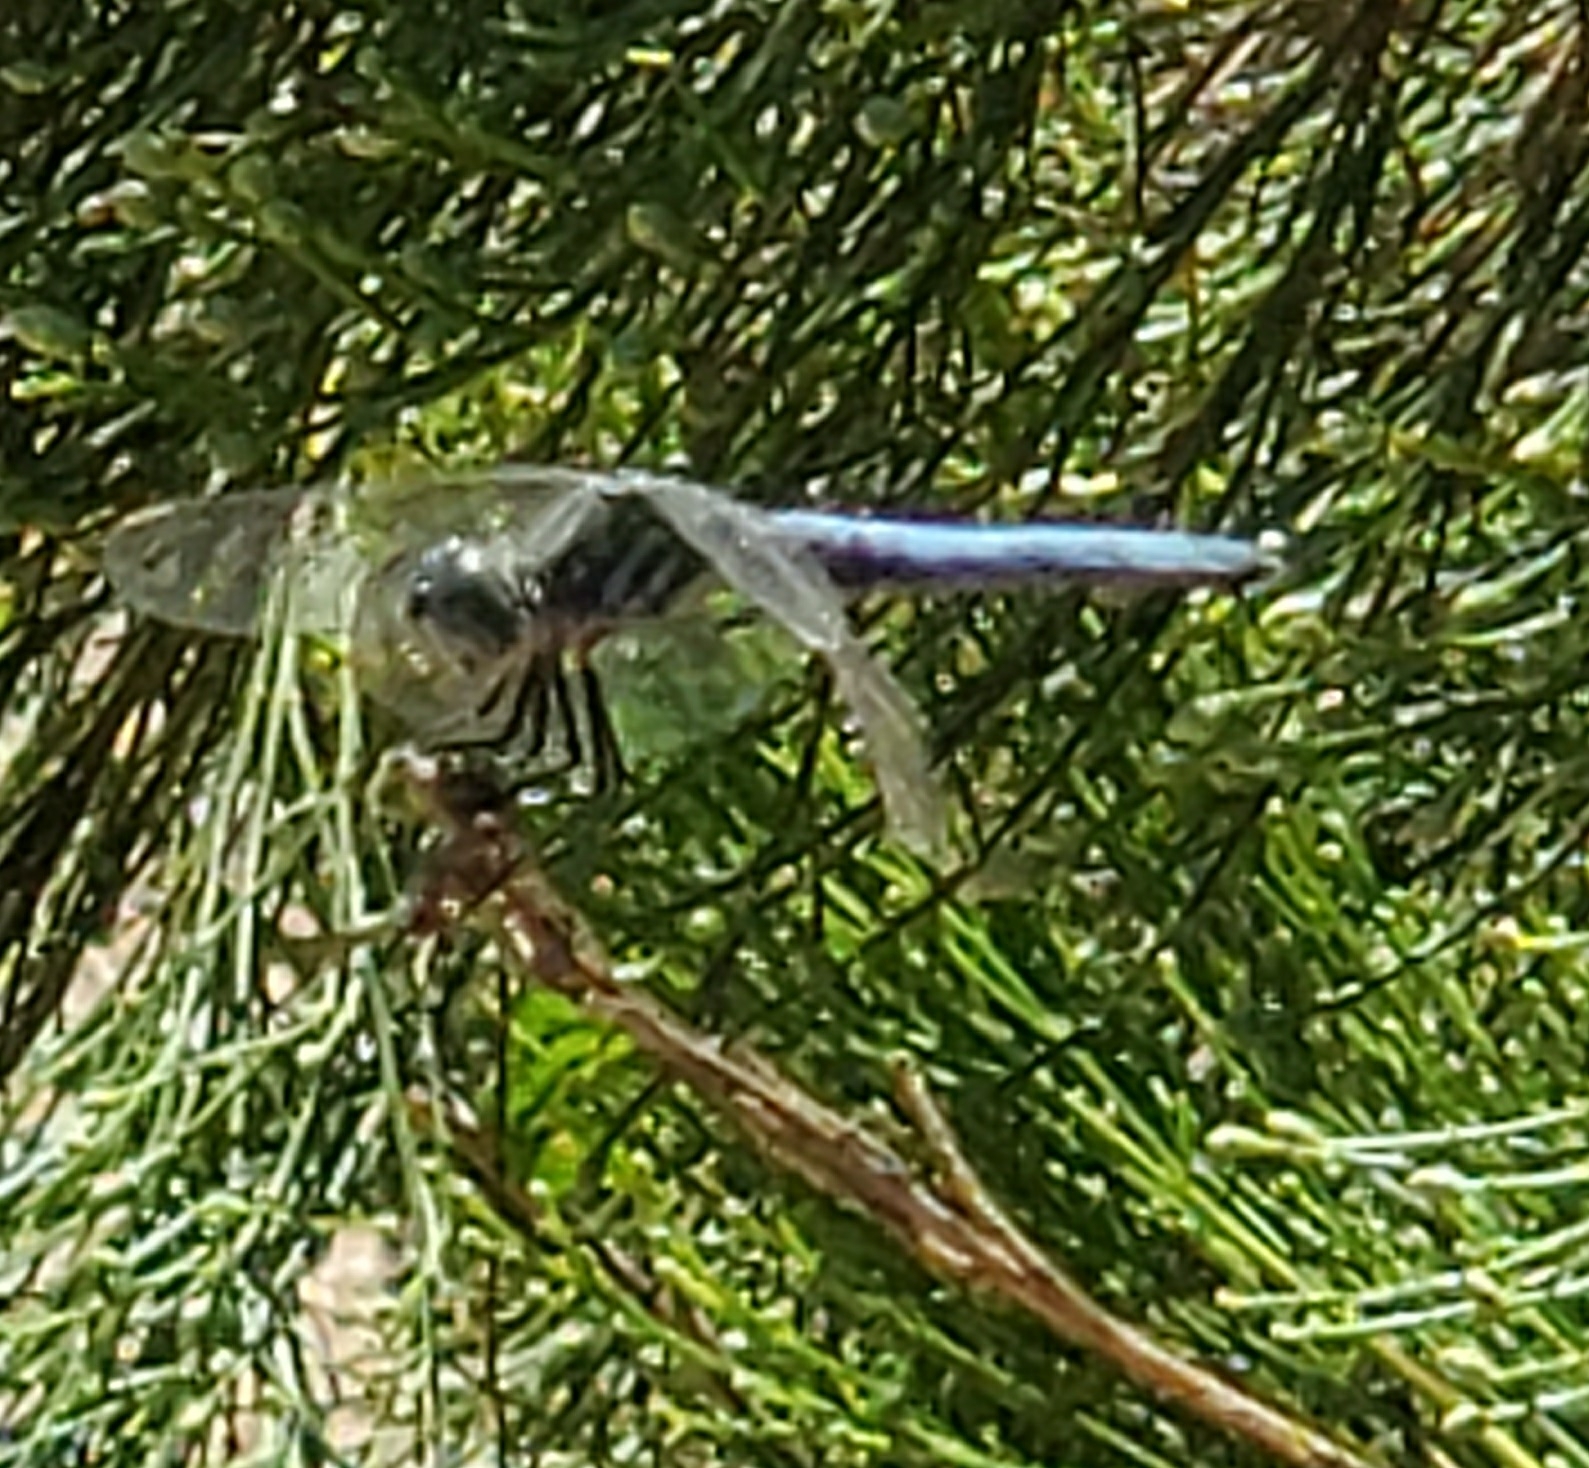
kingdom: Animalia
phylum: Arthropoda
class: Insecta
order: Odonata
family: Libellulidae
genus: Pachydiplax
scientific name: Pachydiplax longipennis
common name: Blue dasher
